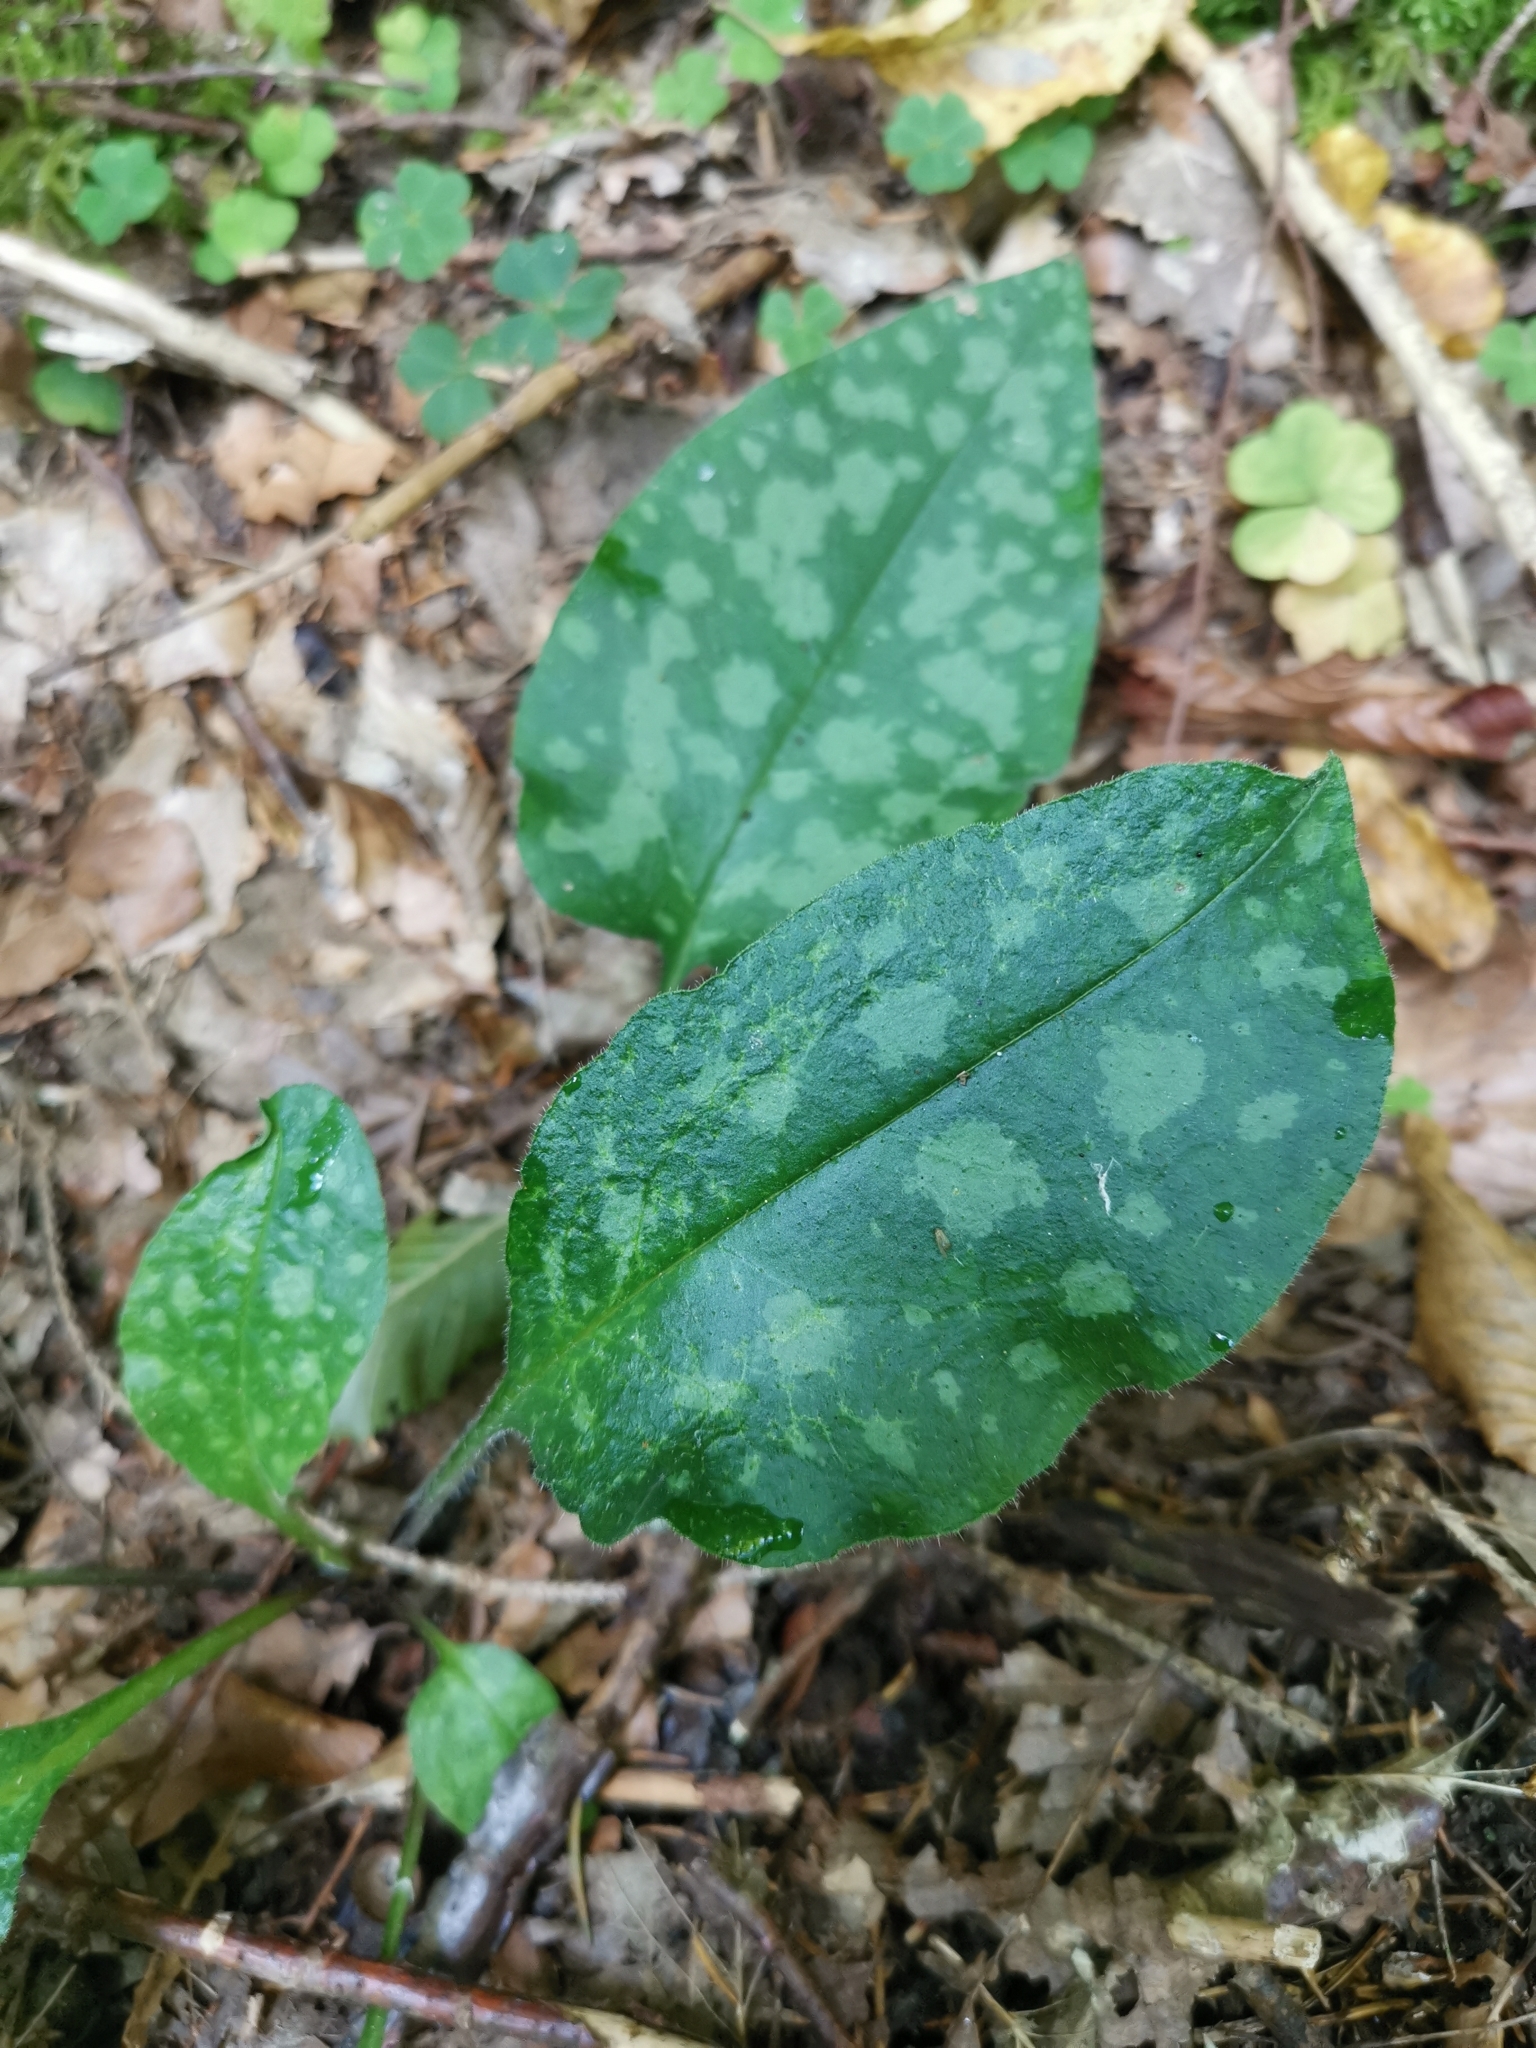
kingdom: Plantae
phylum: Tracheophyta
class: Magnoliopsida
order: Boraginales
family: Boraginaceae
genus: Pulmonaria
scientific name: Pulmonaria officinalis
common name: Lungwort
